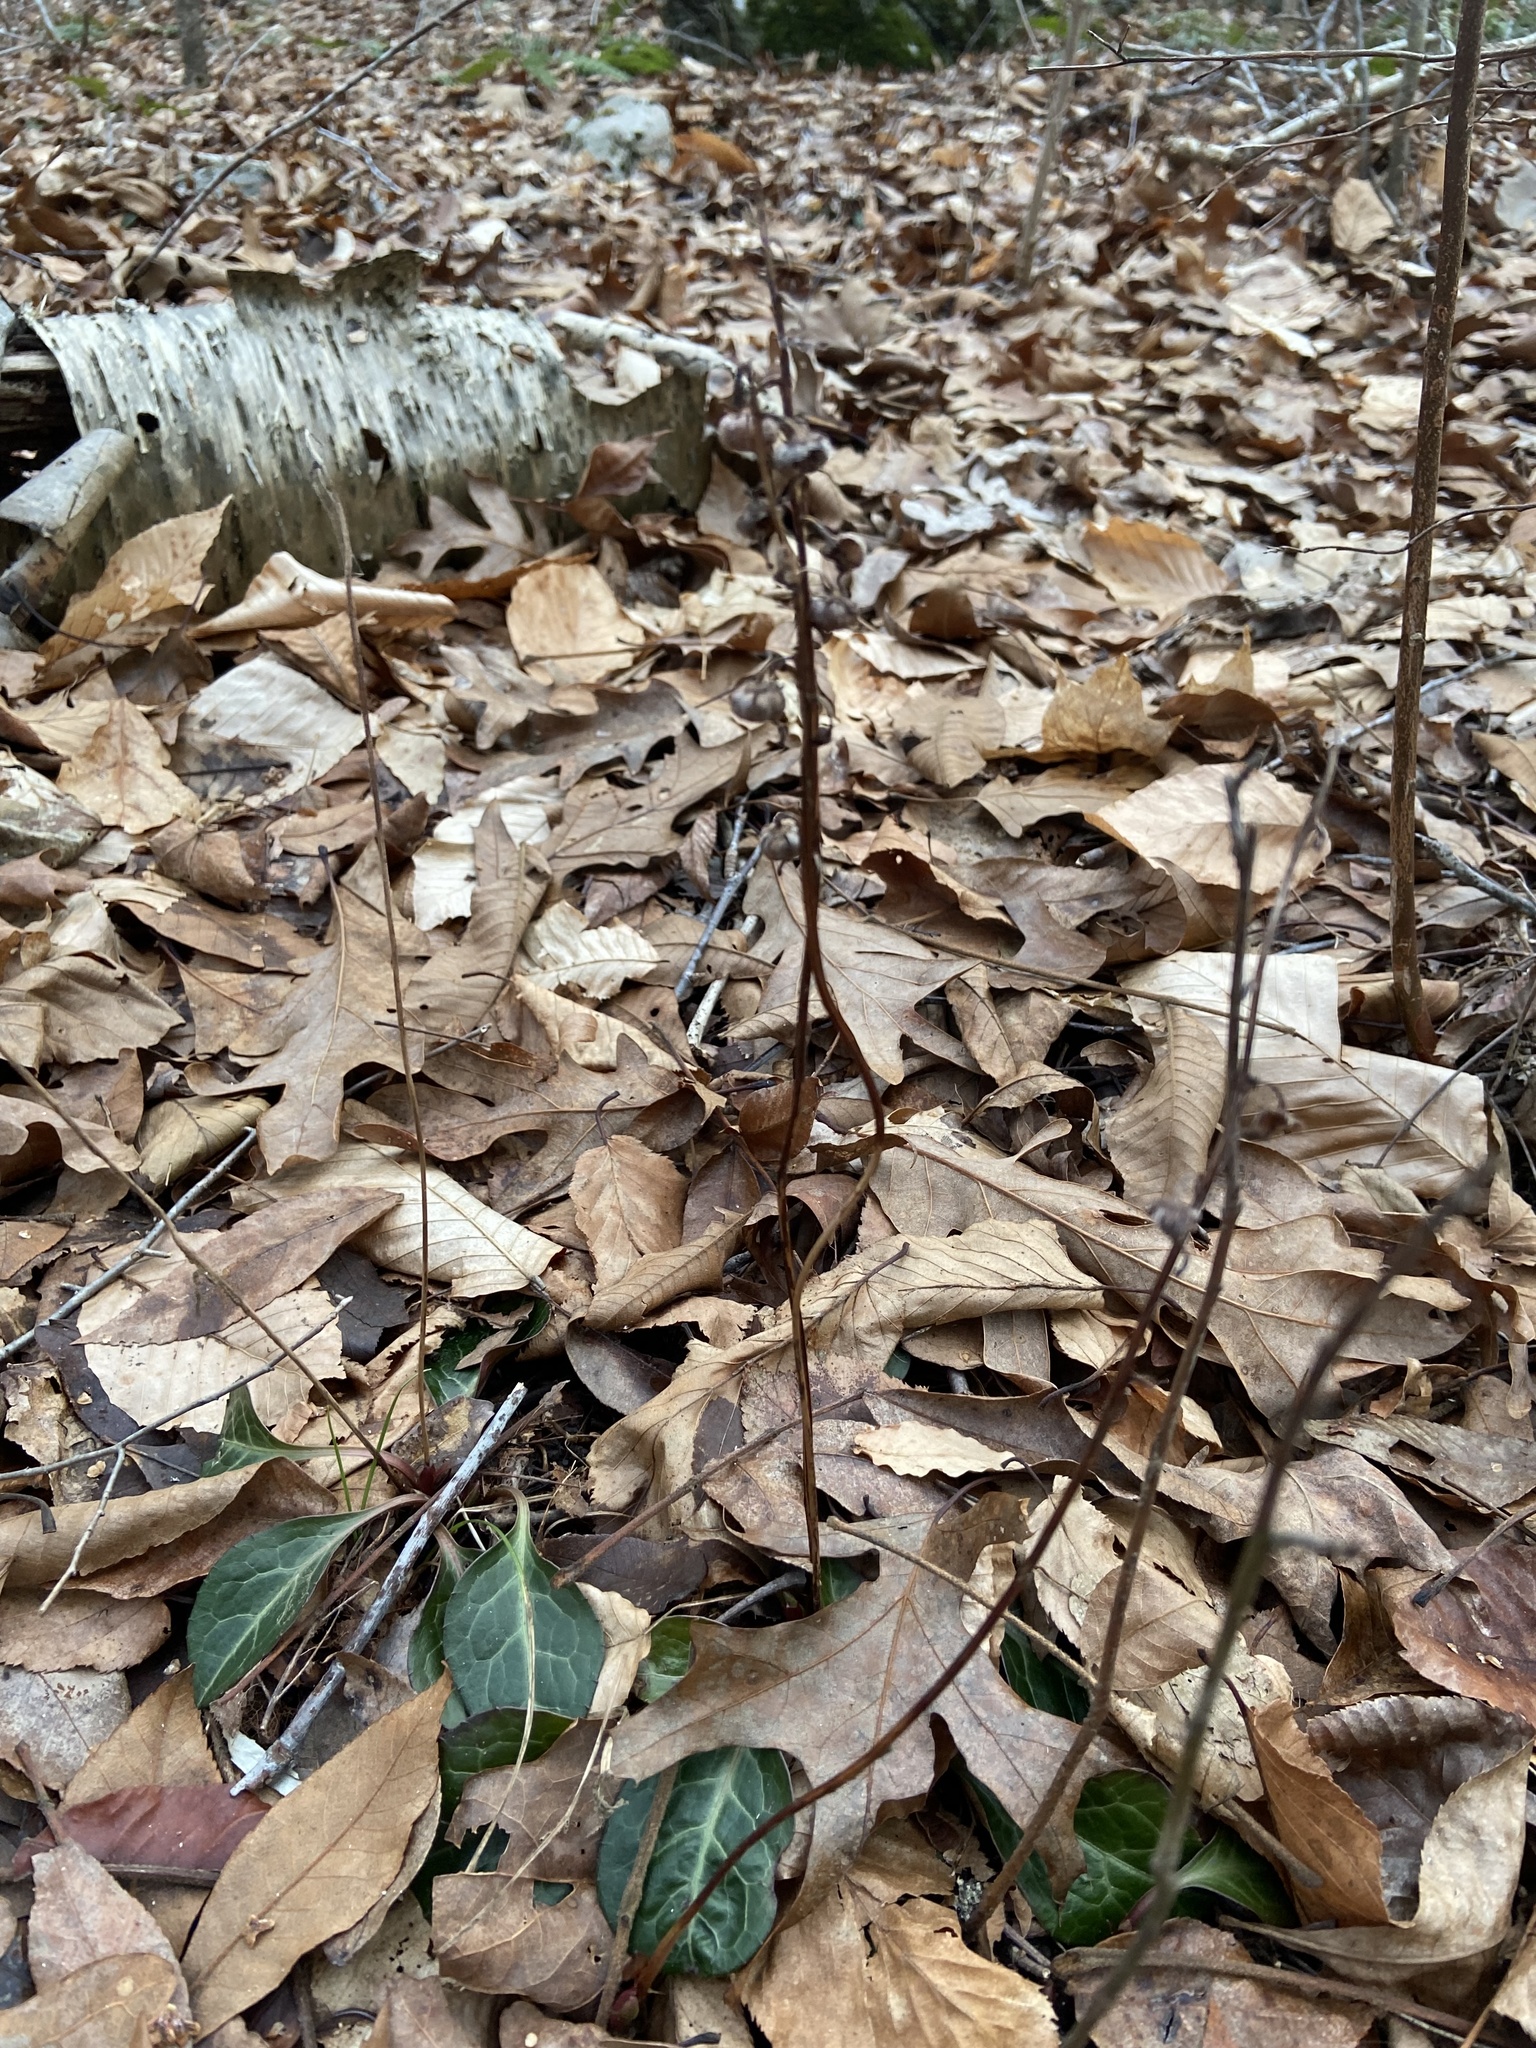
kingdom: Plantae
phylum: Tracheophyta
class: Magnoliopsida
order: Ericales
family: Ericaceae
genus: Pyrola
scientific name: Pyrola americana
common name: American wintergreen
